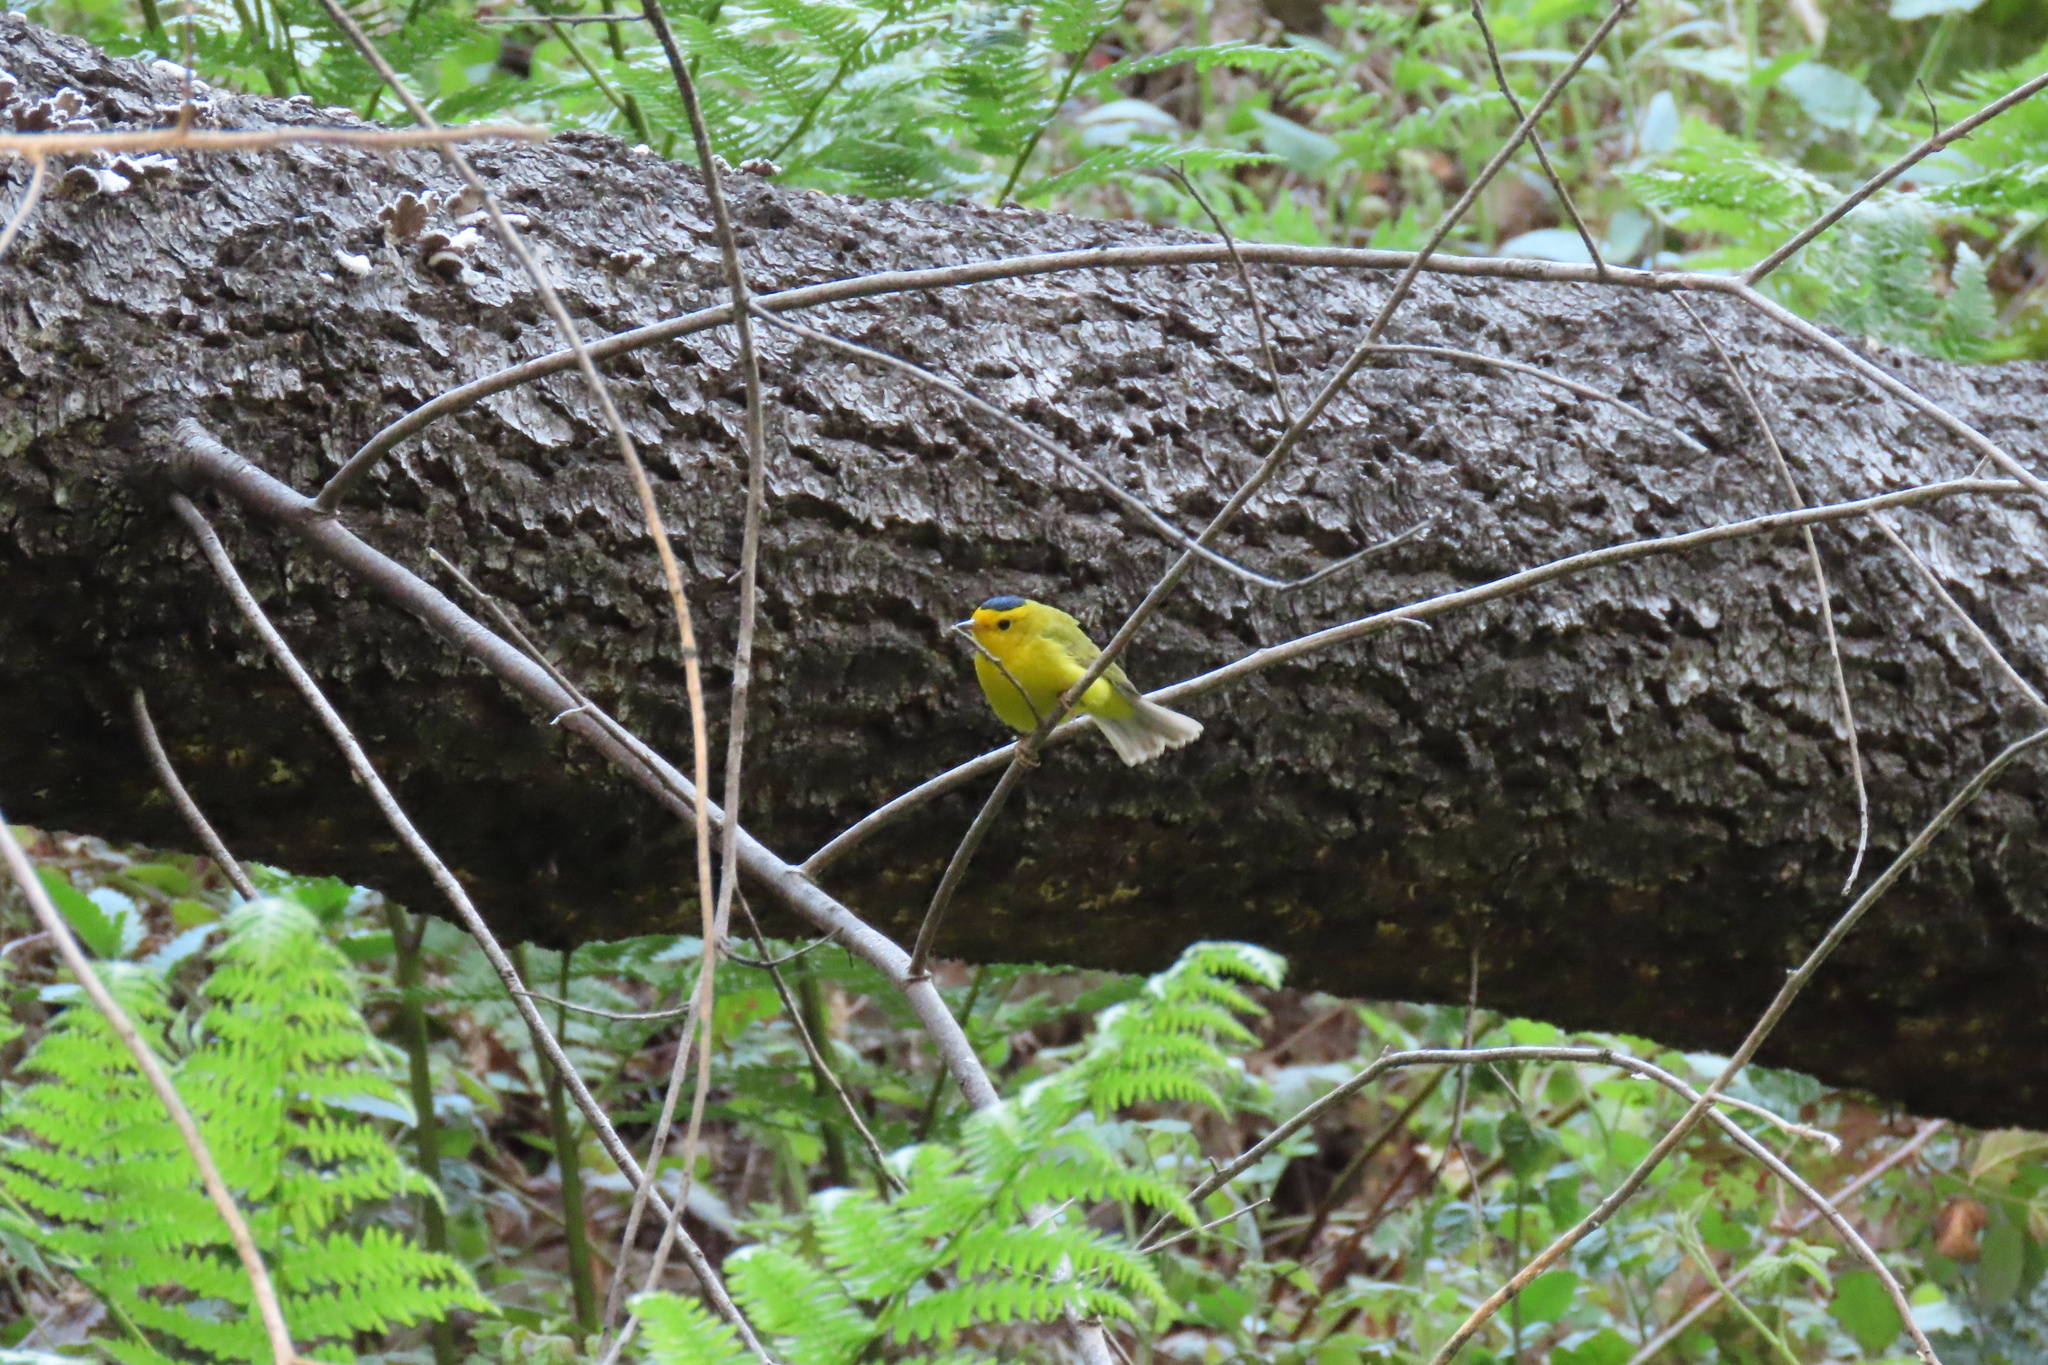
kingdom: Animalia
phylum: Chordata
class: Aves
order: Passeriformes
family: Parulidae
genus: Cardellina
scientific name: Cardellina pusilla
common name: Wilson's warbler
